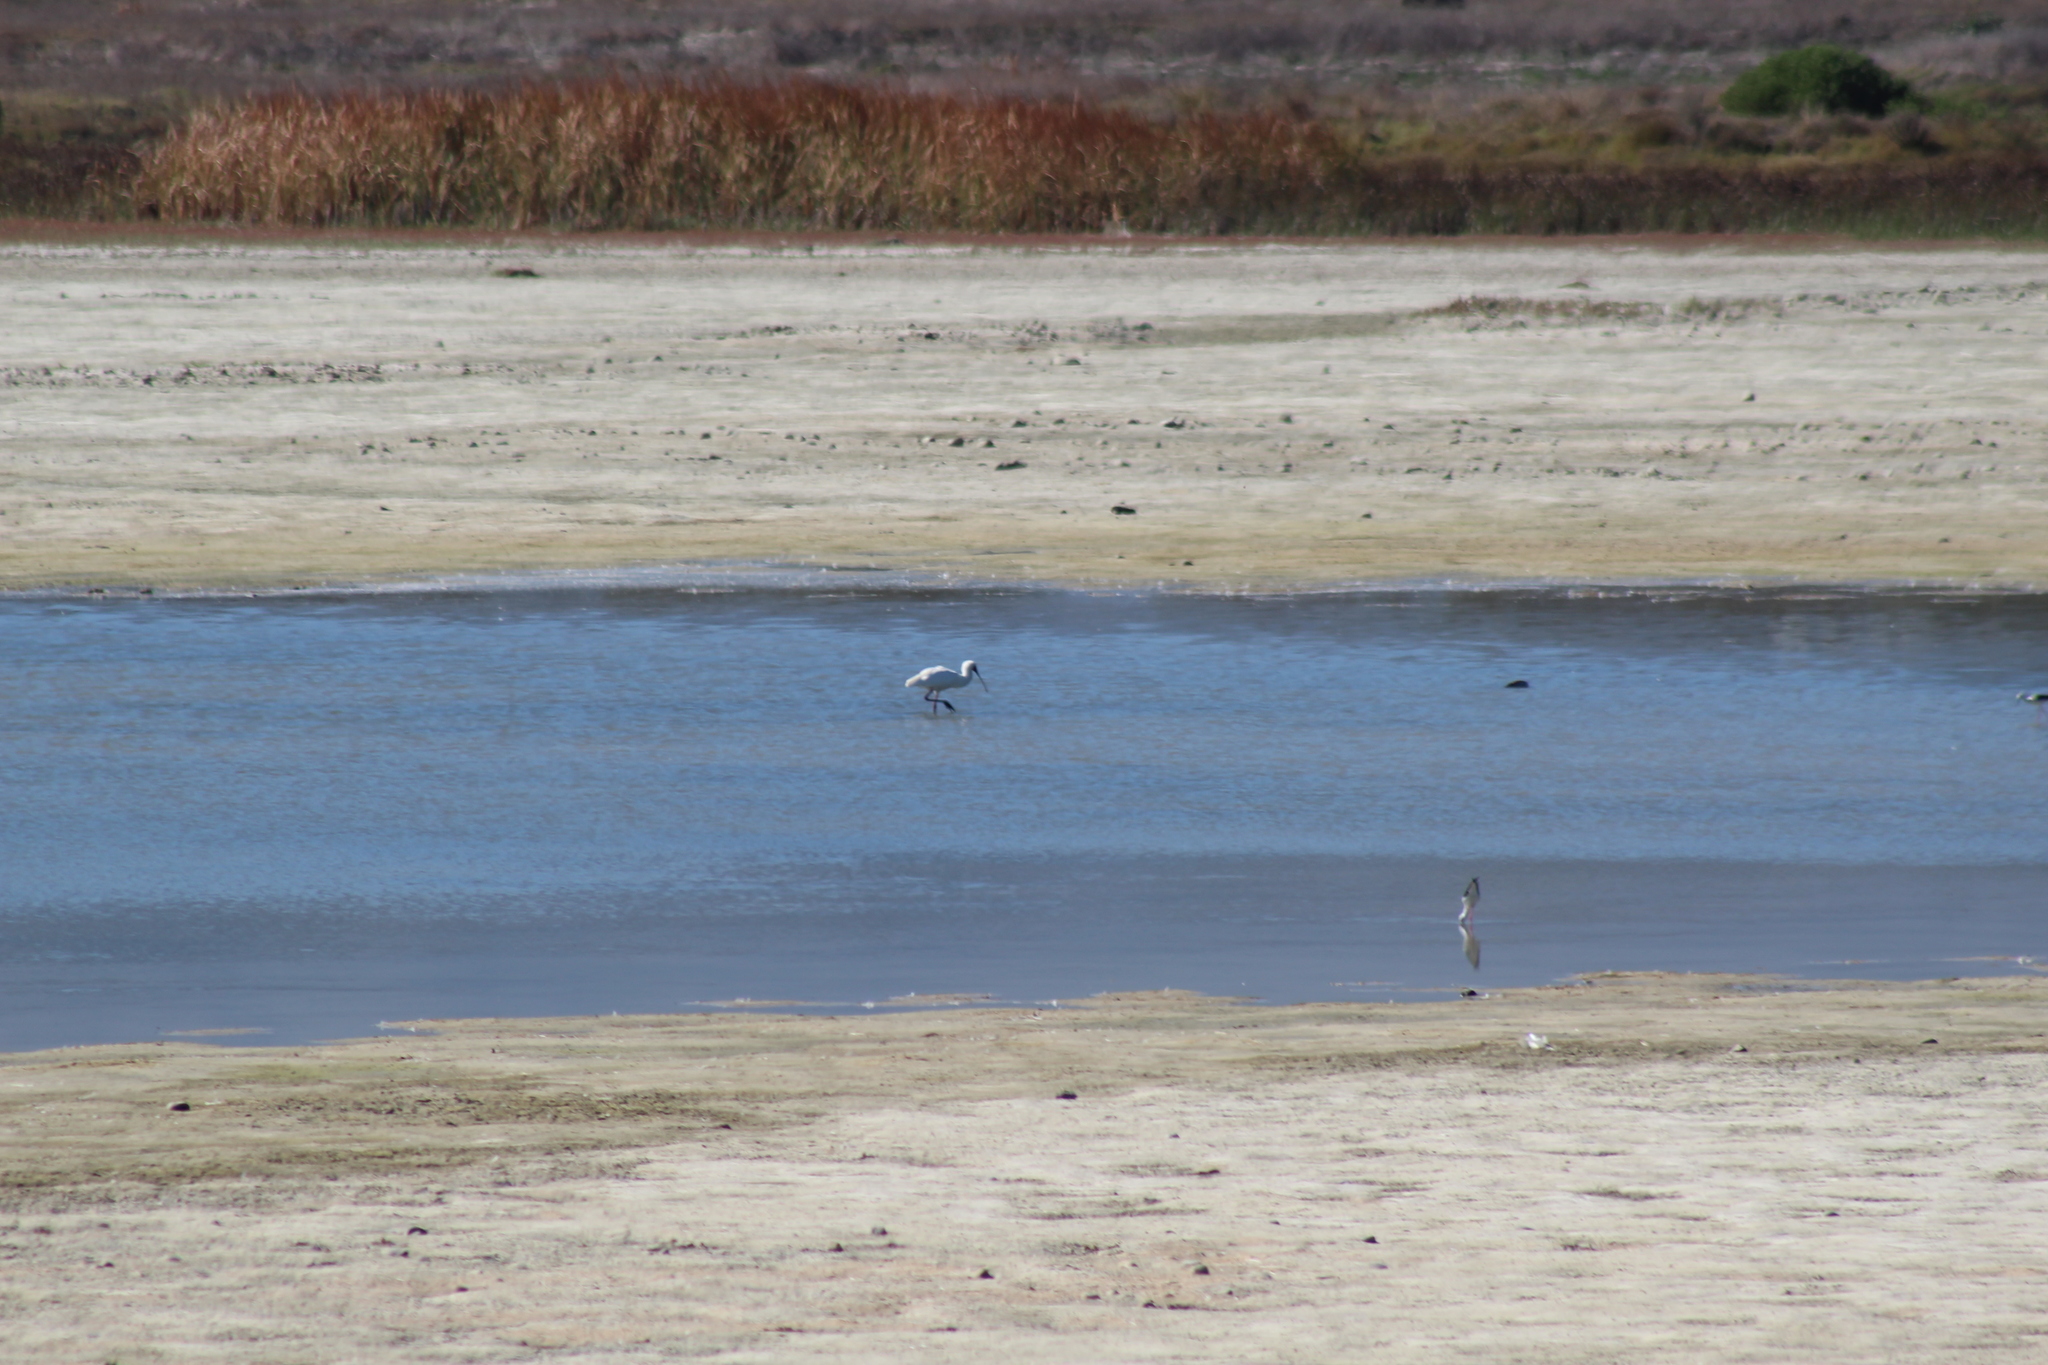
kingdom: Animalia
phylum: Chordata
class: Aves
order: Pelecaniformes
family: Threskiornithidae
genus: Platalea
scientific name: Platalea alba
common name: African spoonbill
